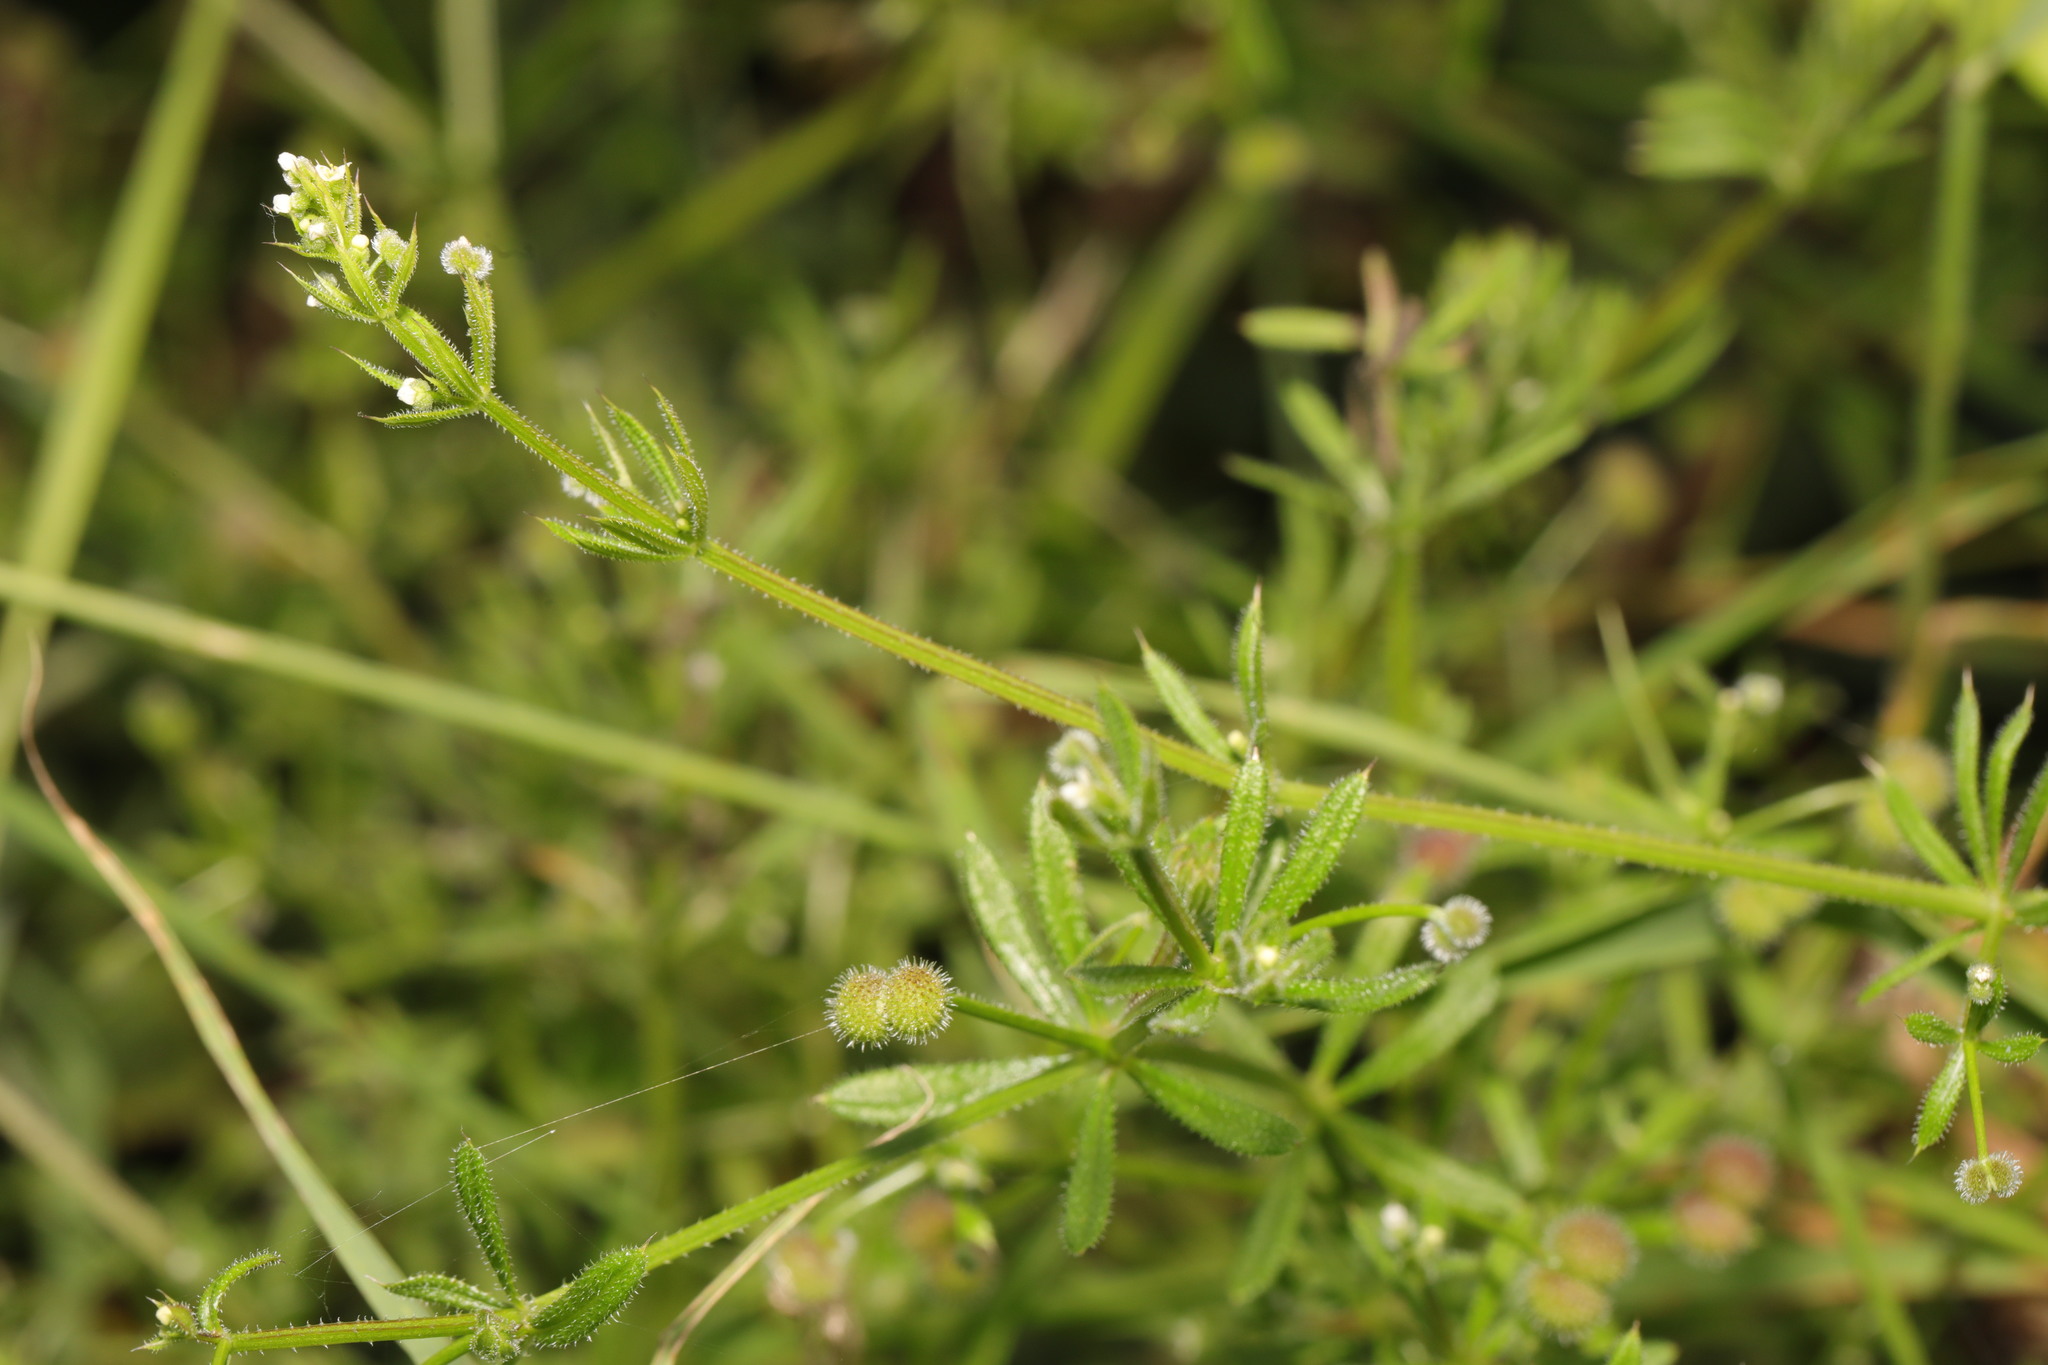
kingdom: Plantae
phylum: Tracheophyta
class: Magnoliopsida
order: Gentianales
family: Rubiaceae
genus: Galium
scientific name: Galium aparine
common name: Cleavers
